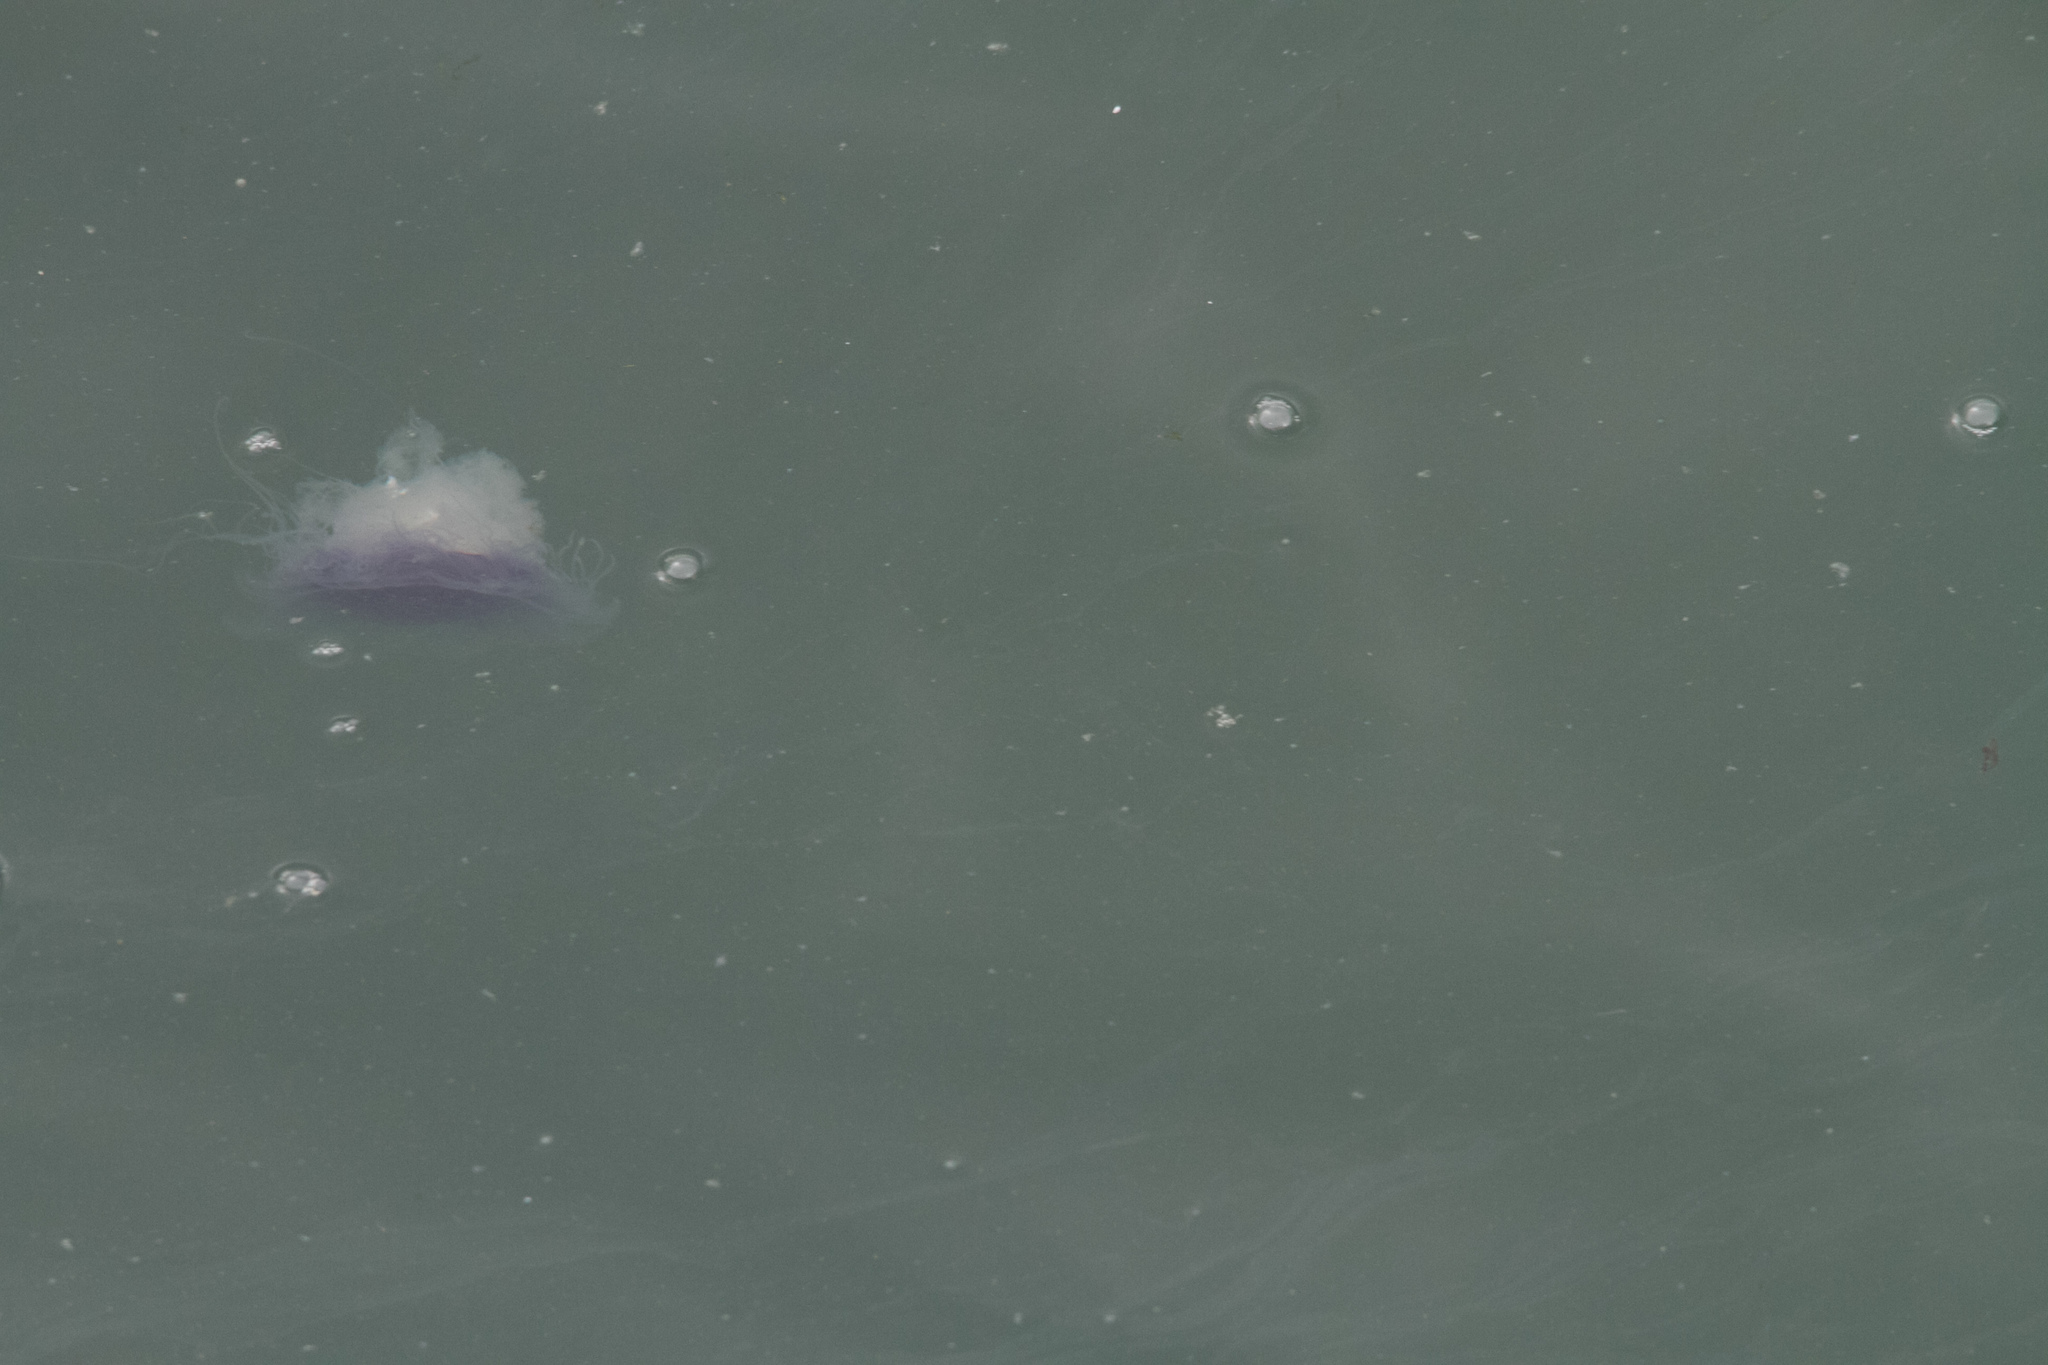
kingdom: Animalia
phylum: Cnidaria
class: Scyphozoa
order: Semaeostomeae
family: Cyaneidae
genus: Cyanea
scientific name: Cyanea lamarckii
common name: Blue jellyfish
